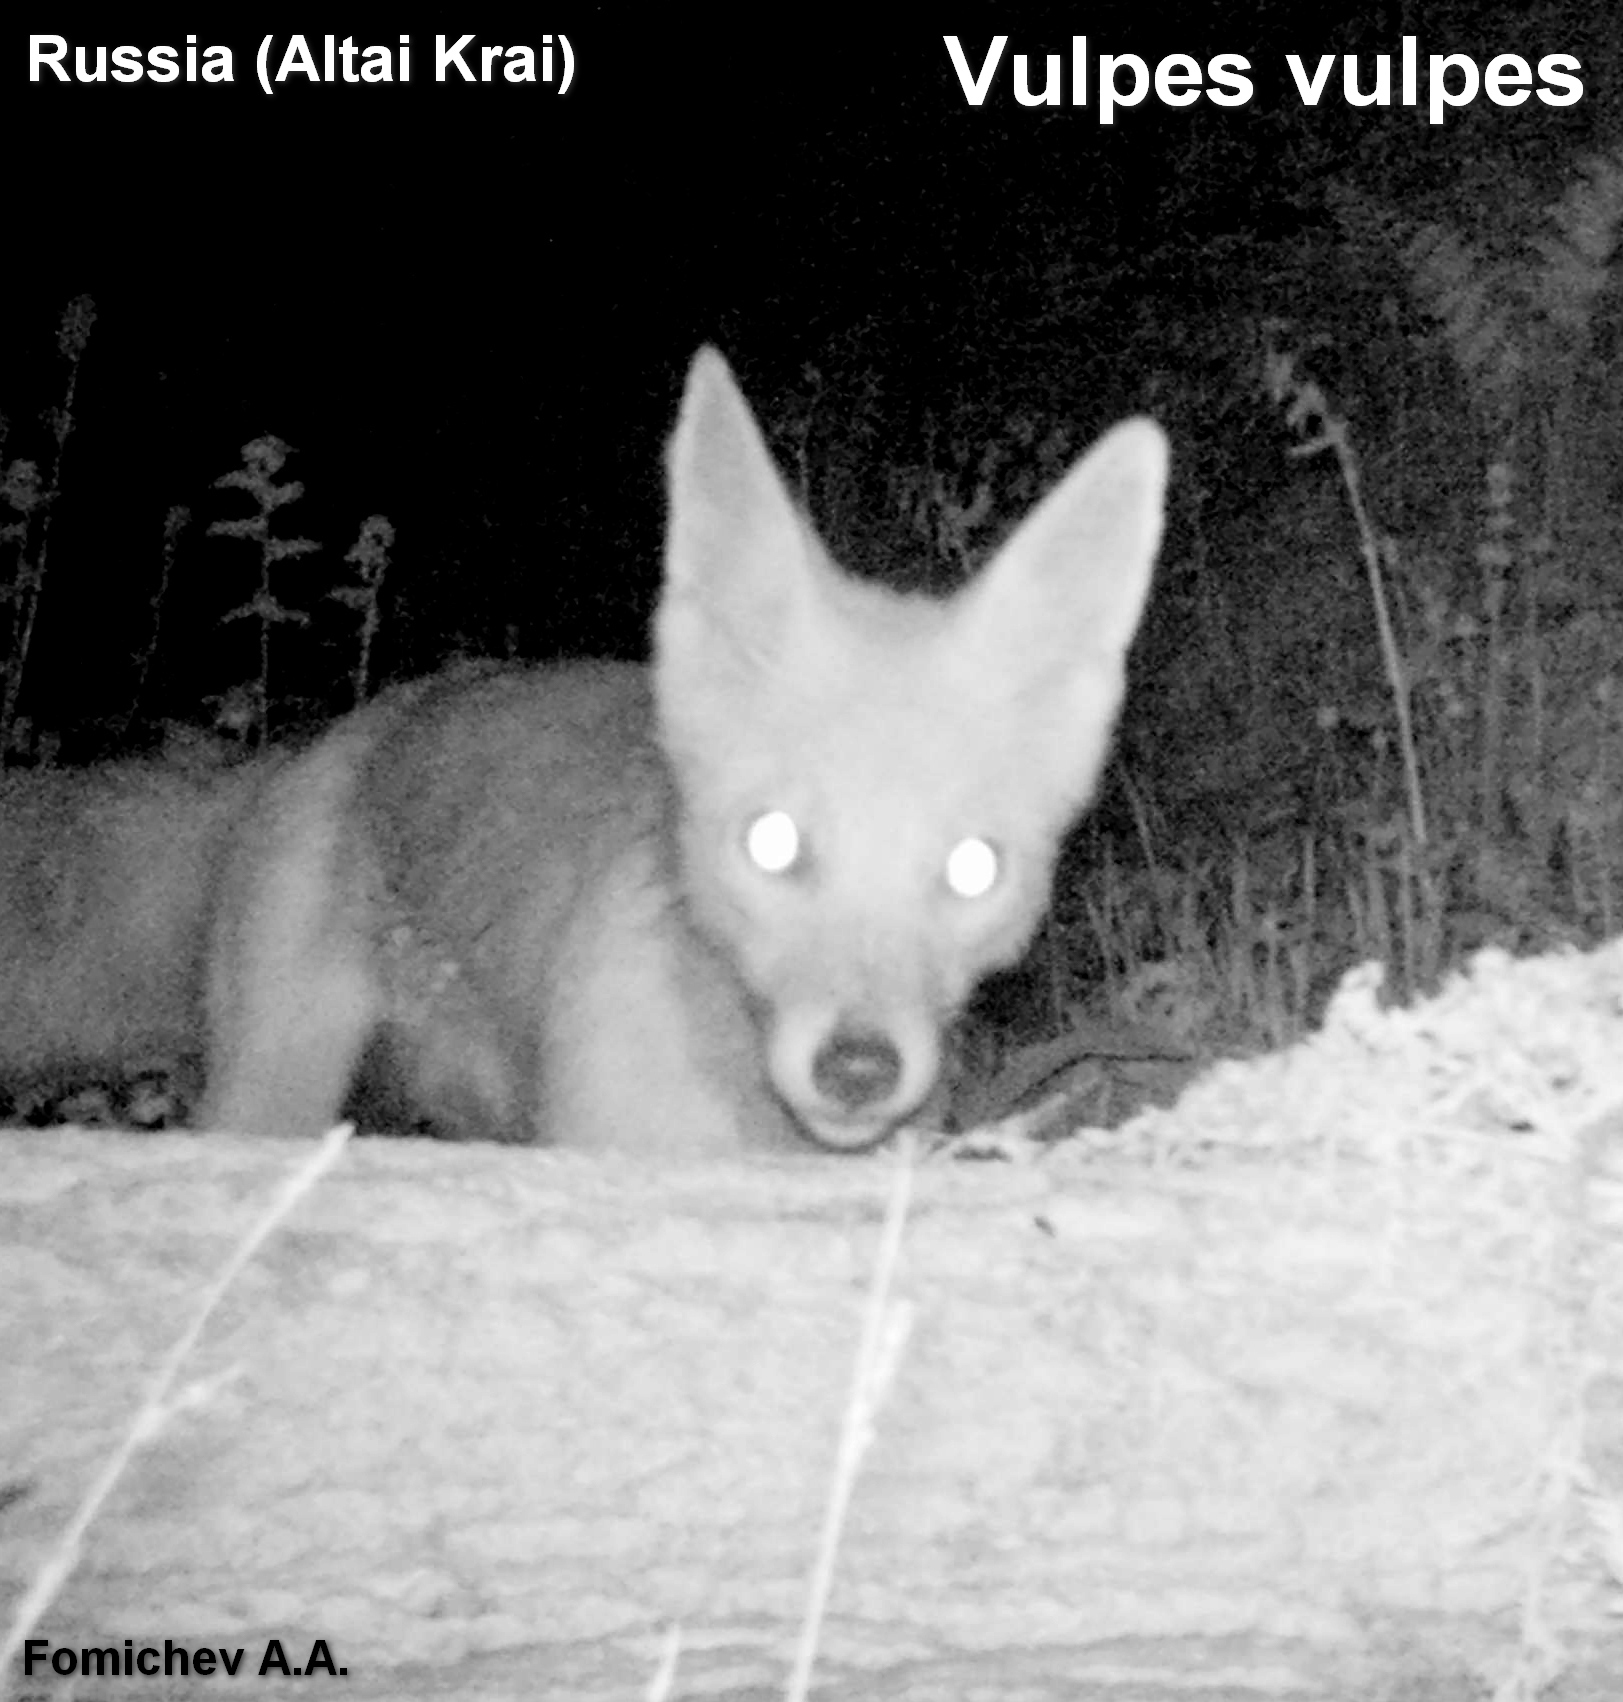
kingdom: Animalia
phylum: Chordata
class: Mammalia
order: Carnivora
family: Canidae
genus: Vulpes
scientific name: Vulpes vulpes
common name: Red fox
